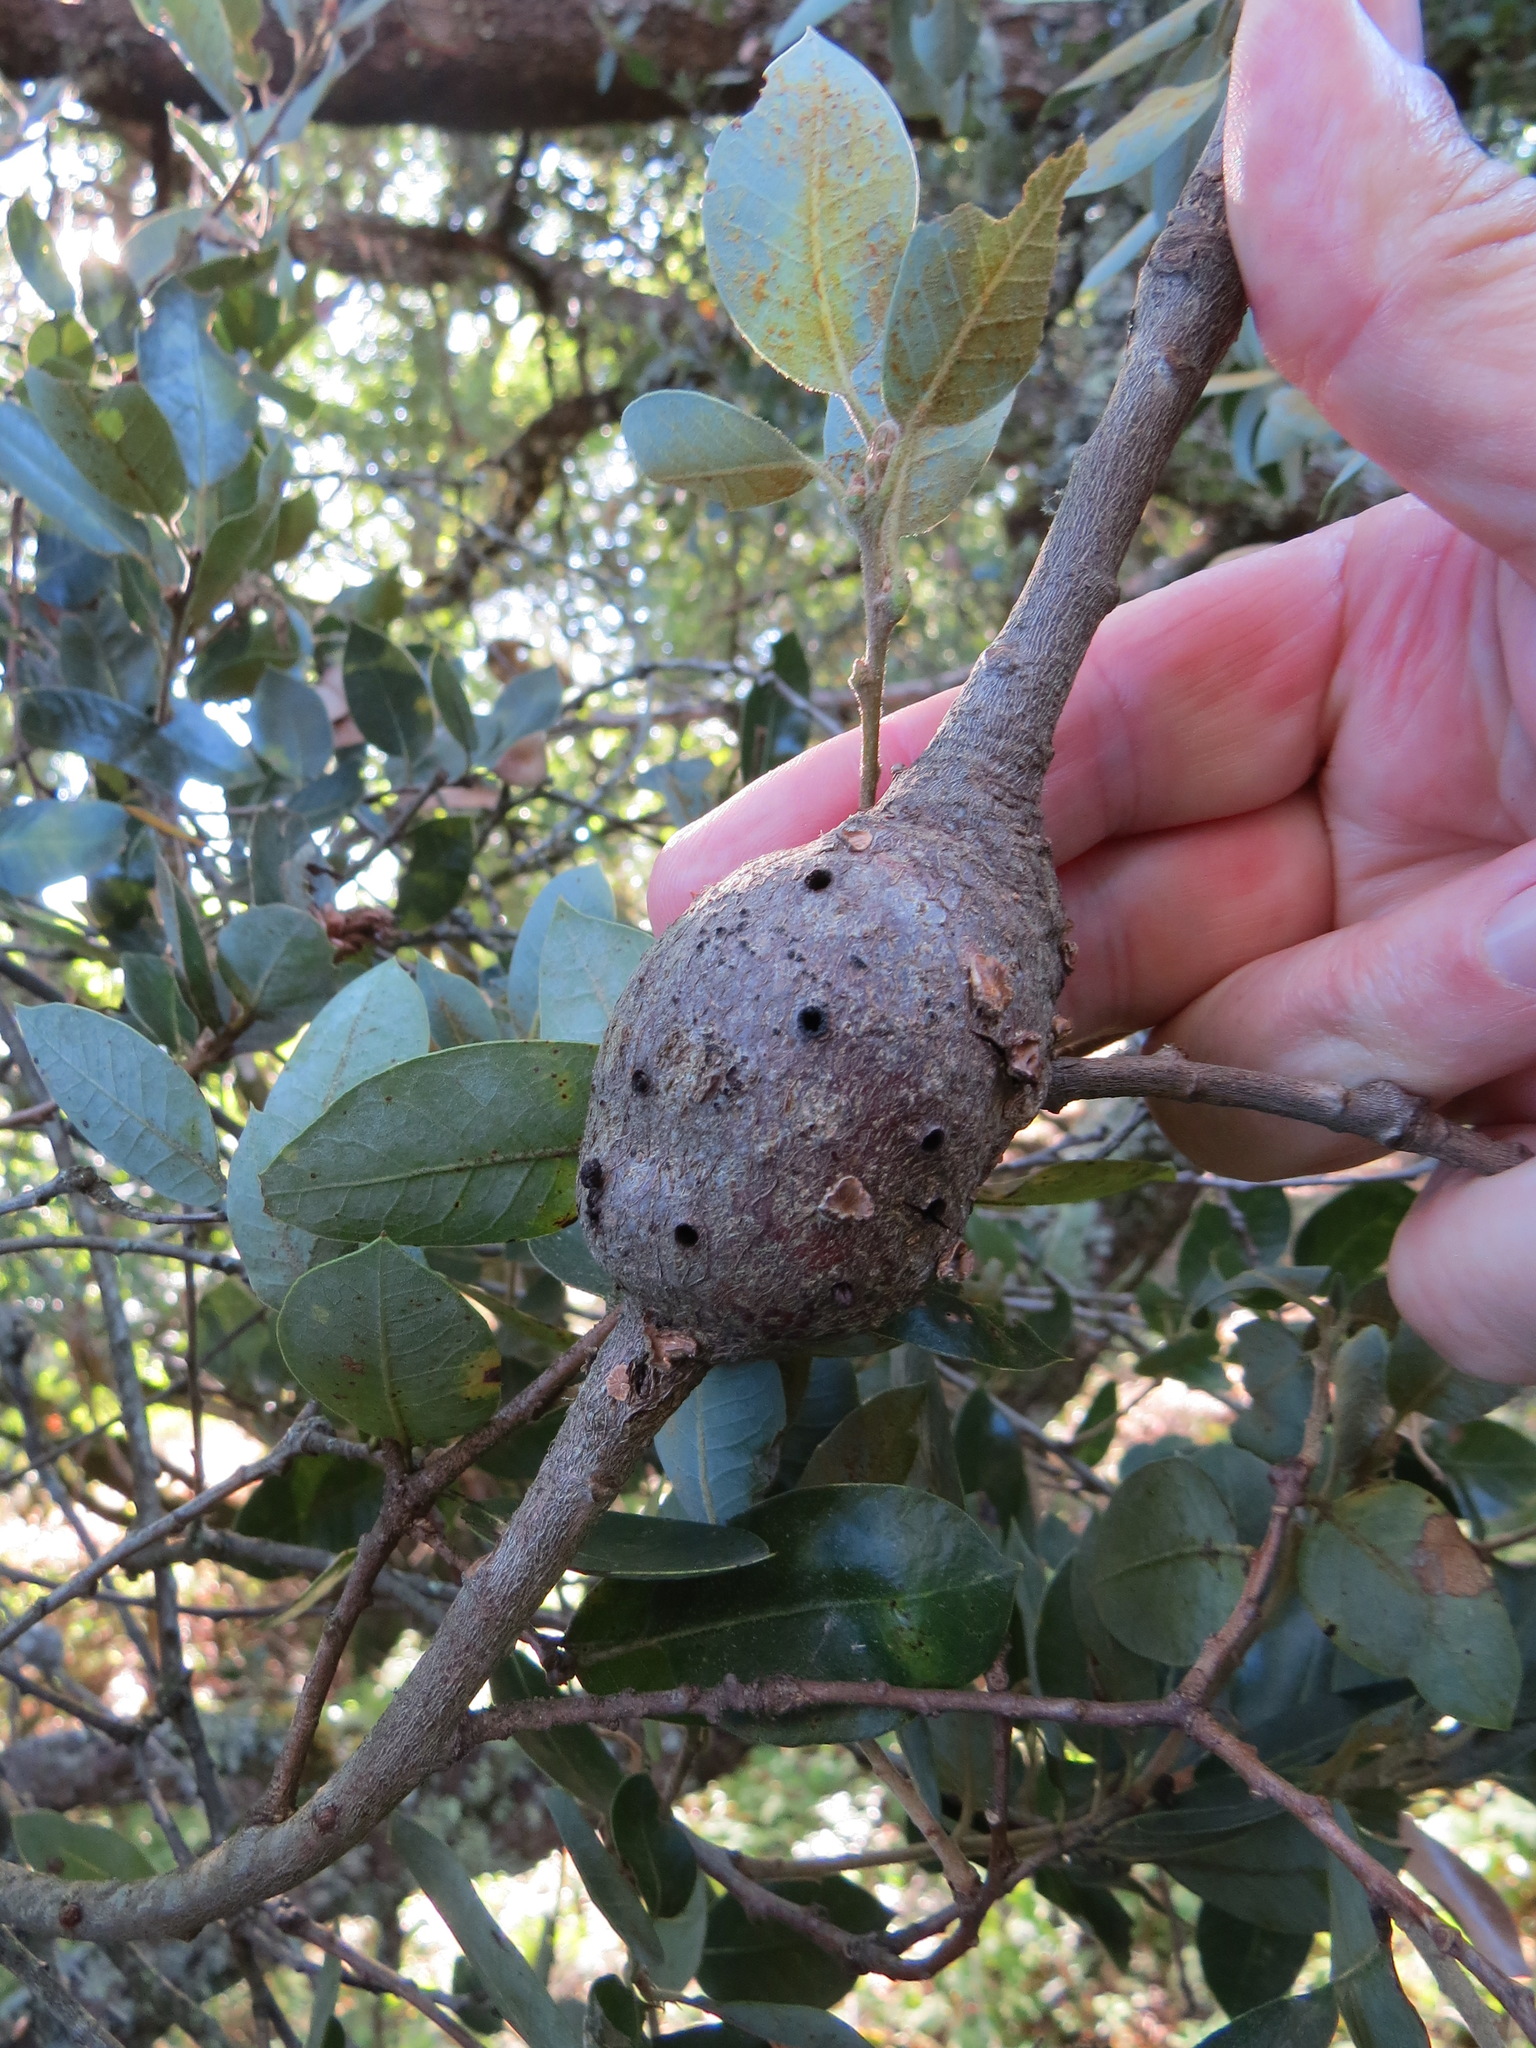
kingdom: Animalia
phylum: Arthropoda
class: Insecta
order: Hymenoptera
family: Cynipidae
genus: Disholcaspis
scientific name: Disholcaspis spectabilis
